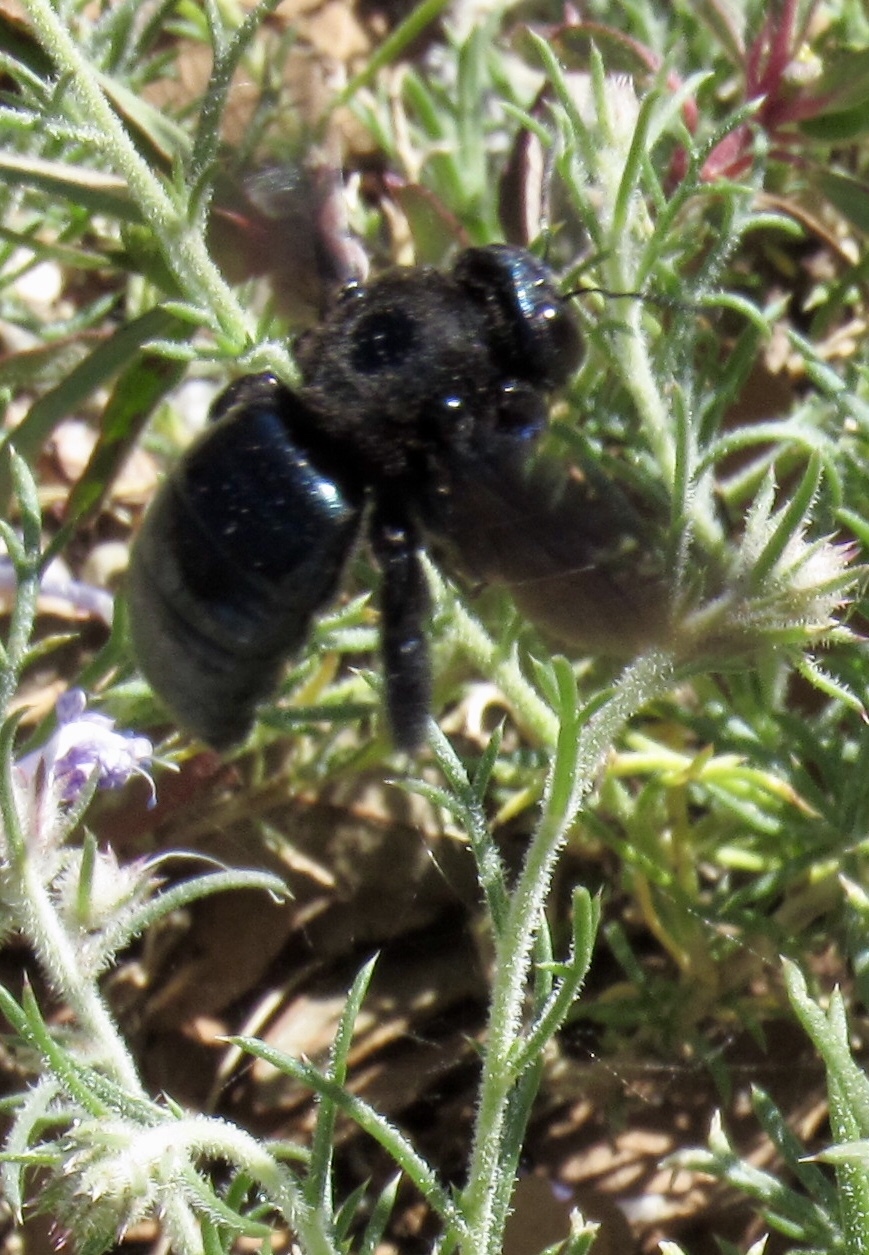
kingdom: Animalia
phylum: Arthropoda
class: Insecta
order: Hymenoptera
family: Apidae
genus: Xylocopa
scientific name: Xylocopa californica
